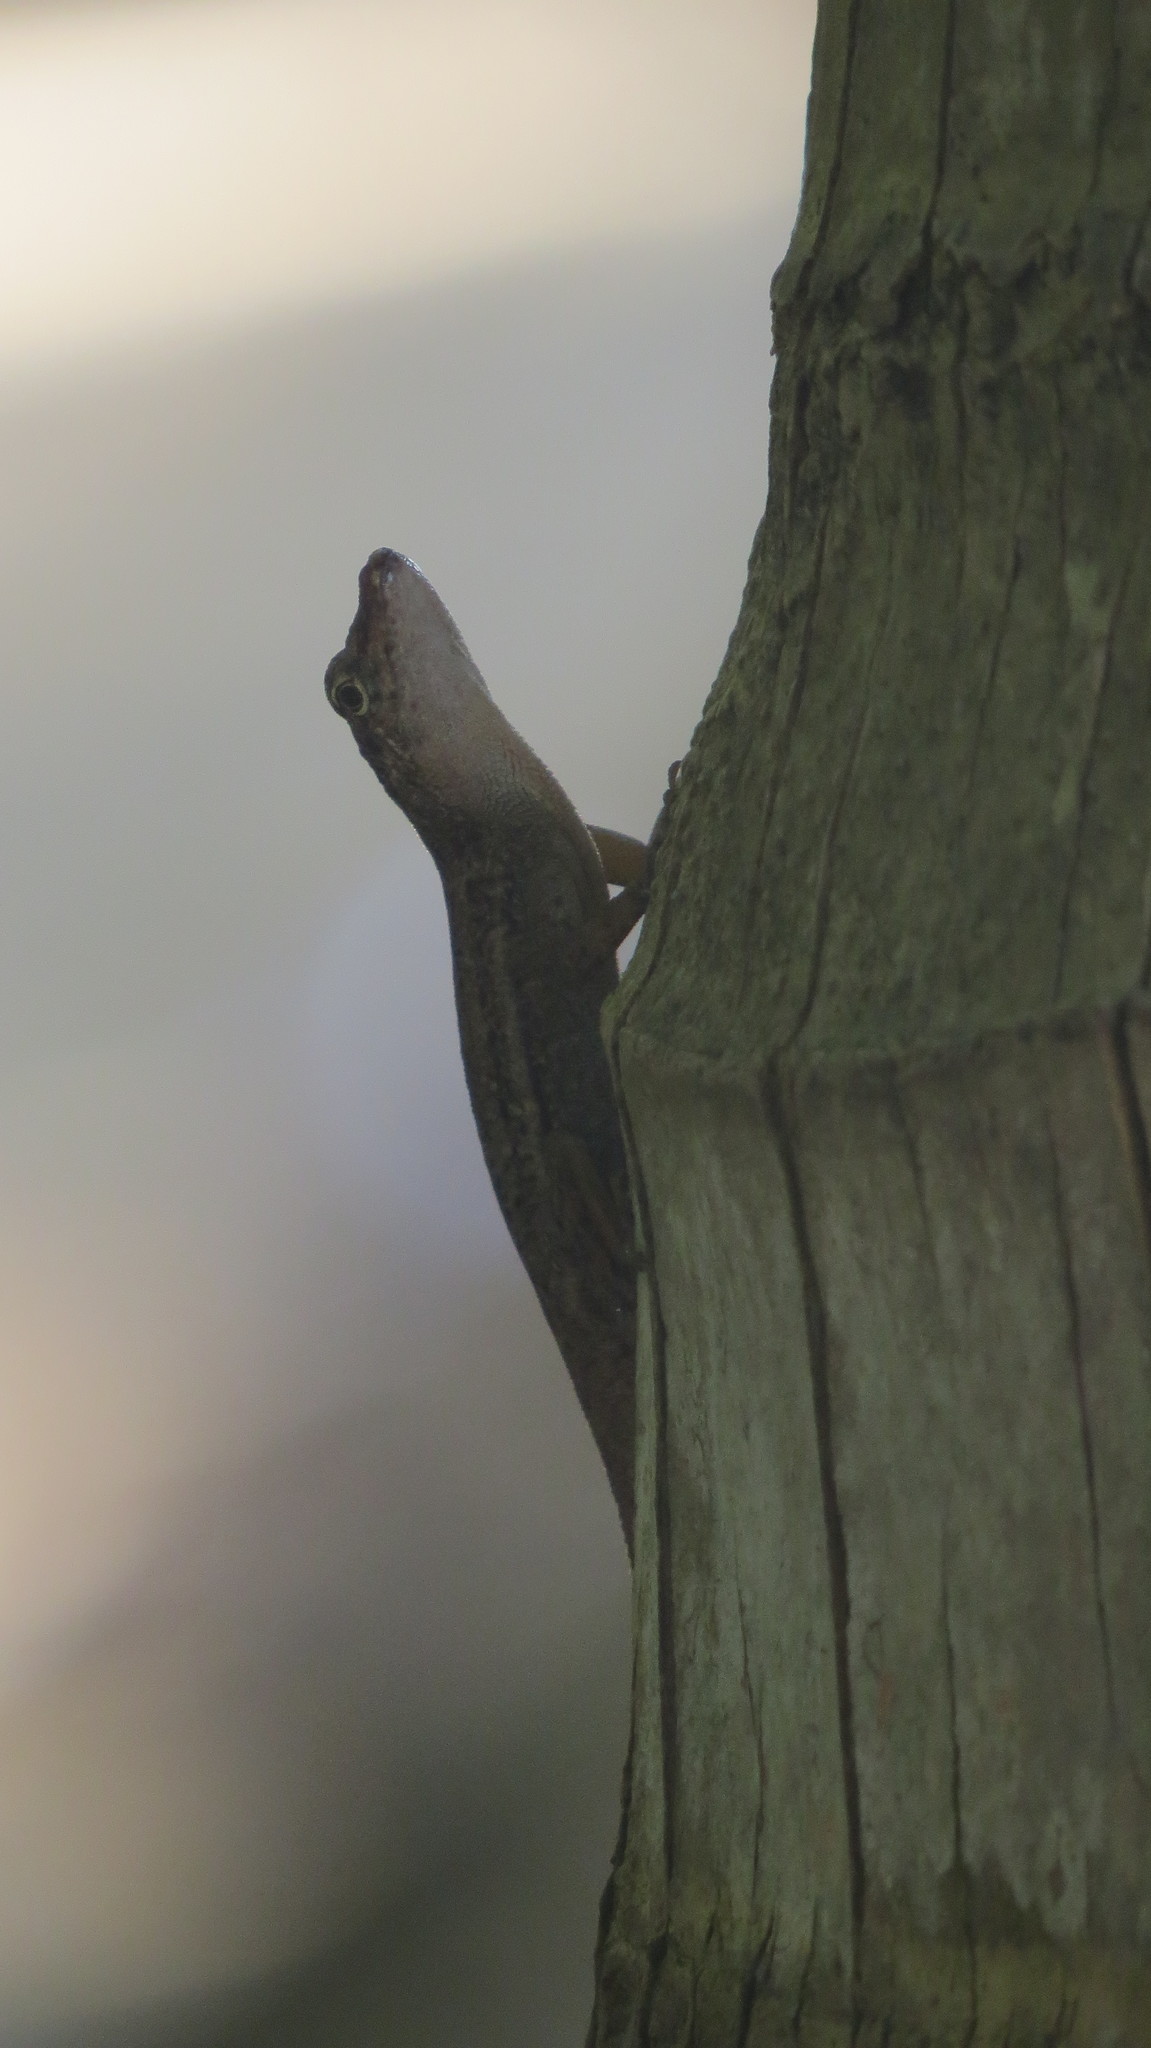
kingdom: Animalia
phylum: Chordata
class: Squamata
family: Dactyloidae
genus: Anolis
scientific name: Anolis pinchoti
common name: Crab cay anole
